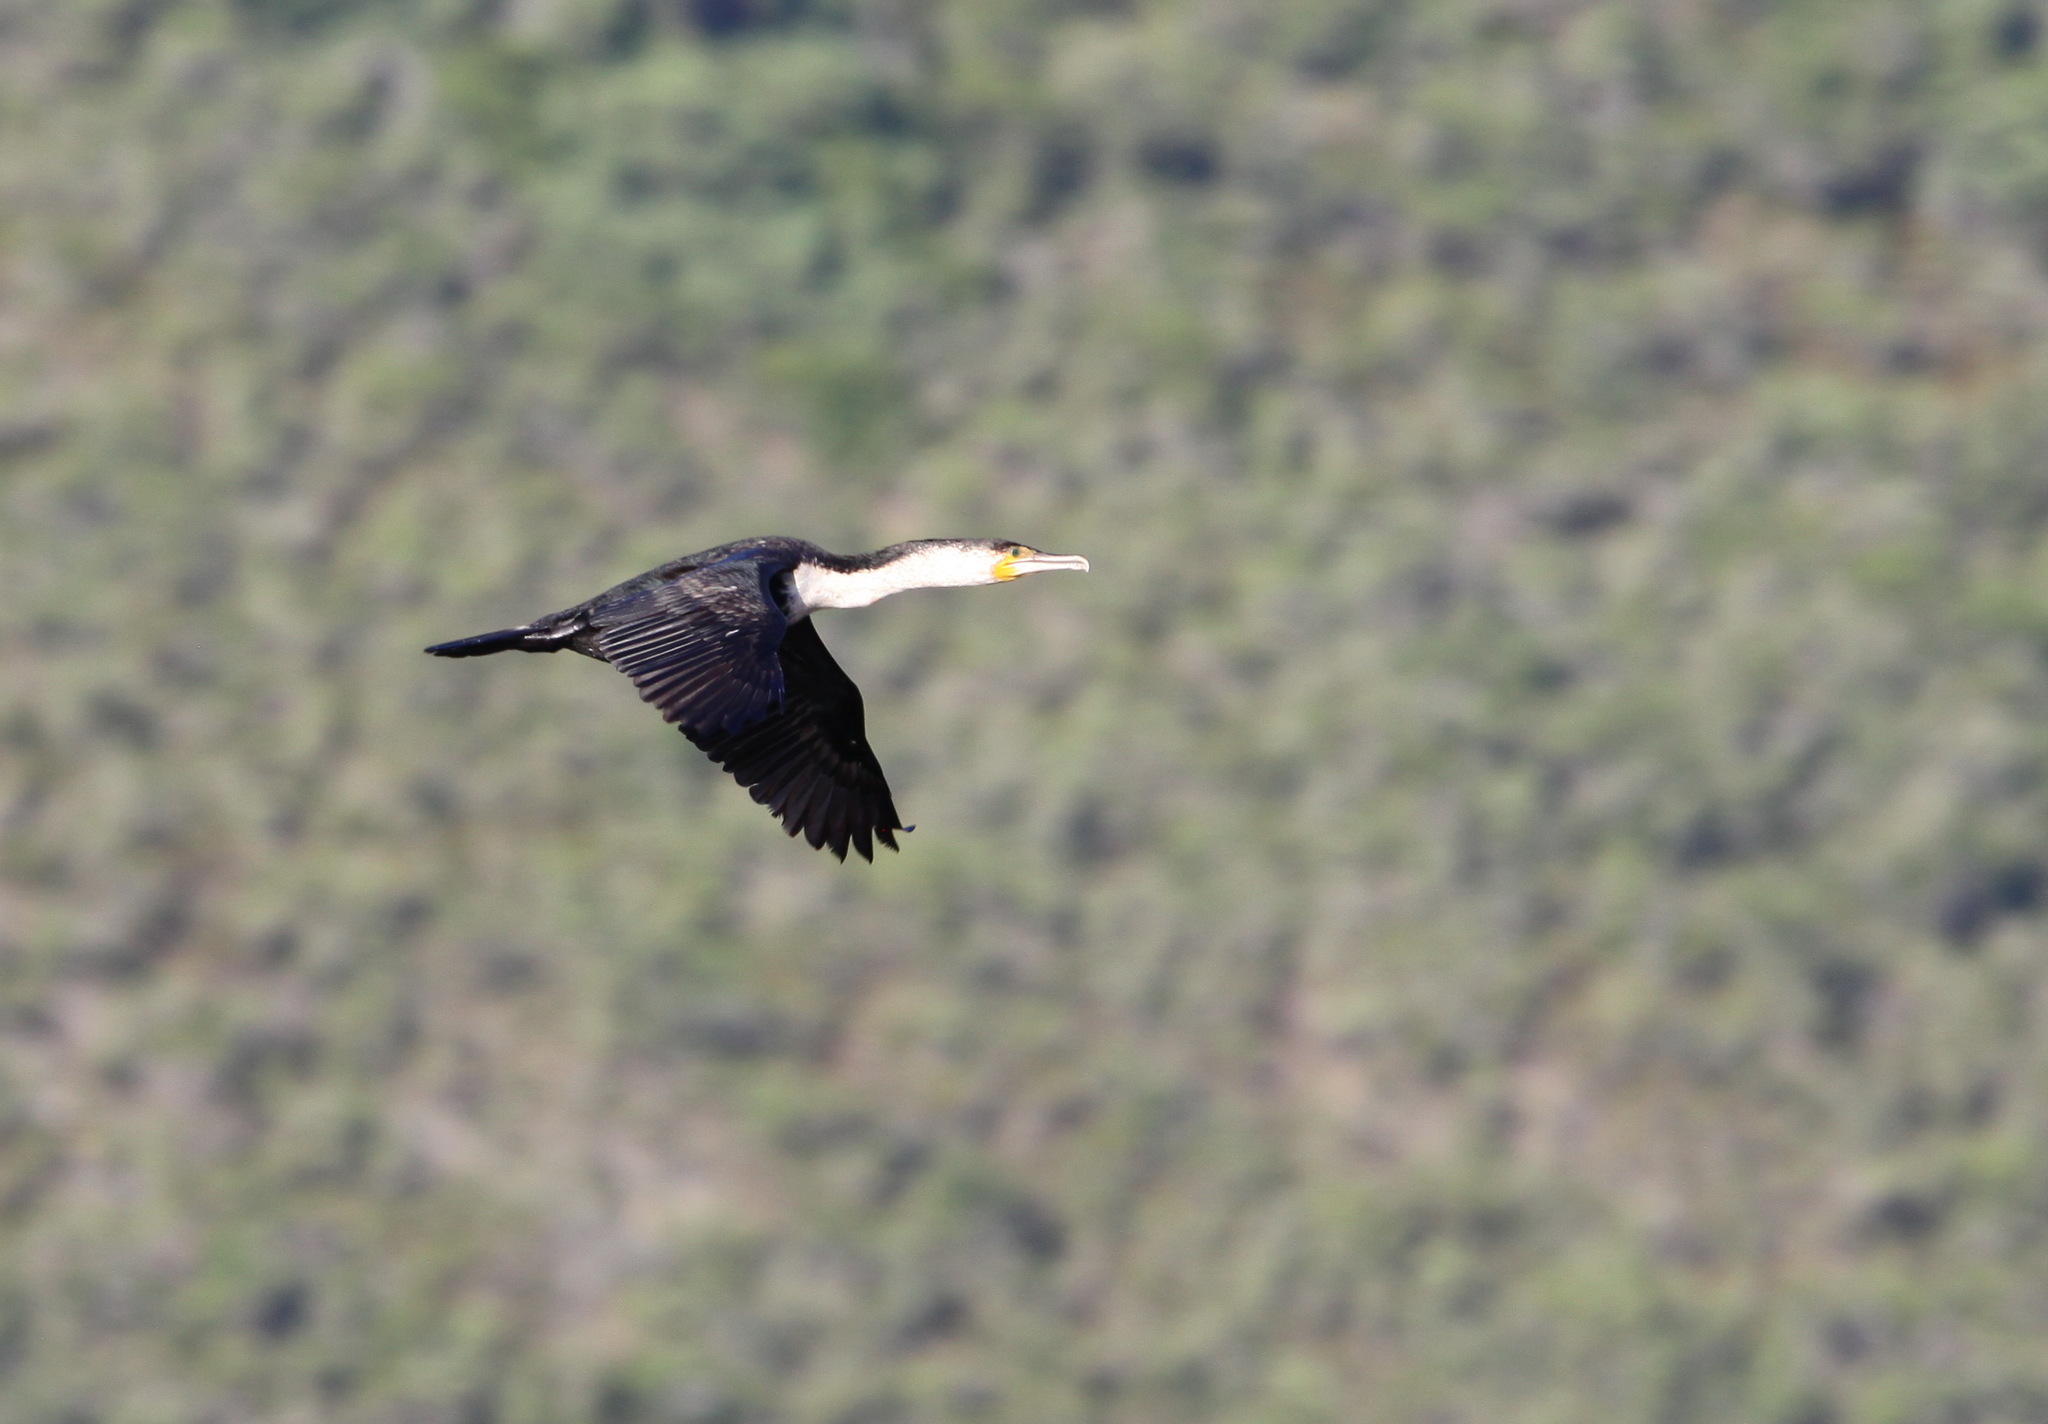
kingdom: Animalia
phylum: Chordata
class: Aves
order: Suliformes
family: Phalacrocoracidae
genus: Phalacrocorax
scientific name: Phalacrocorax carbo
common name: Great cormorant
